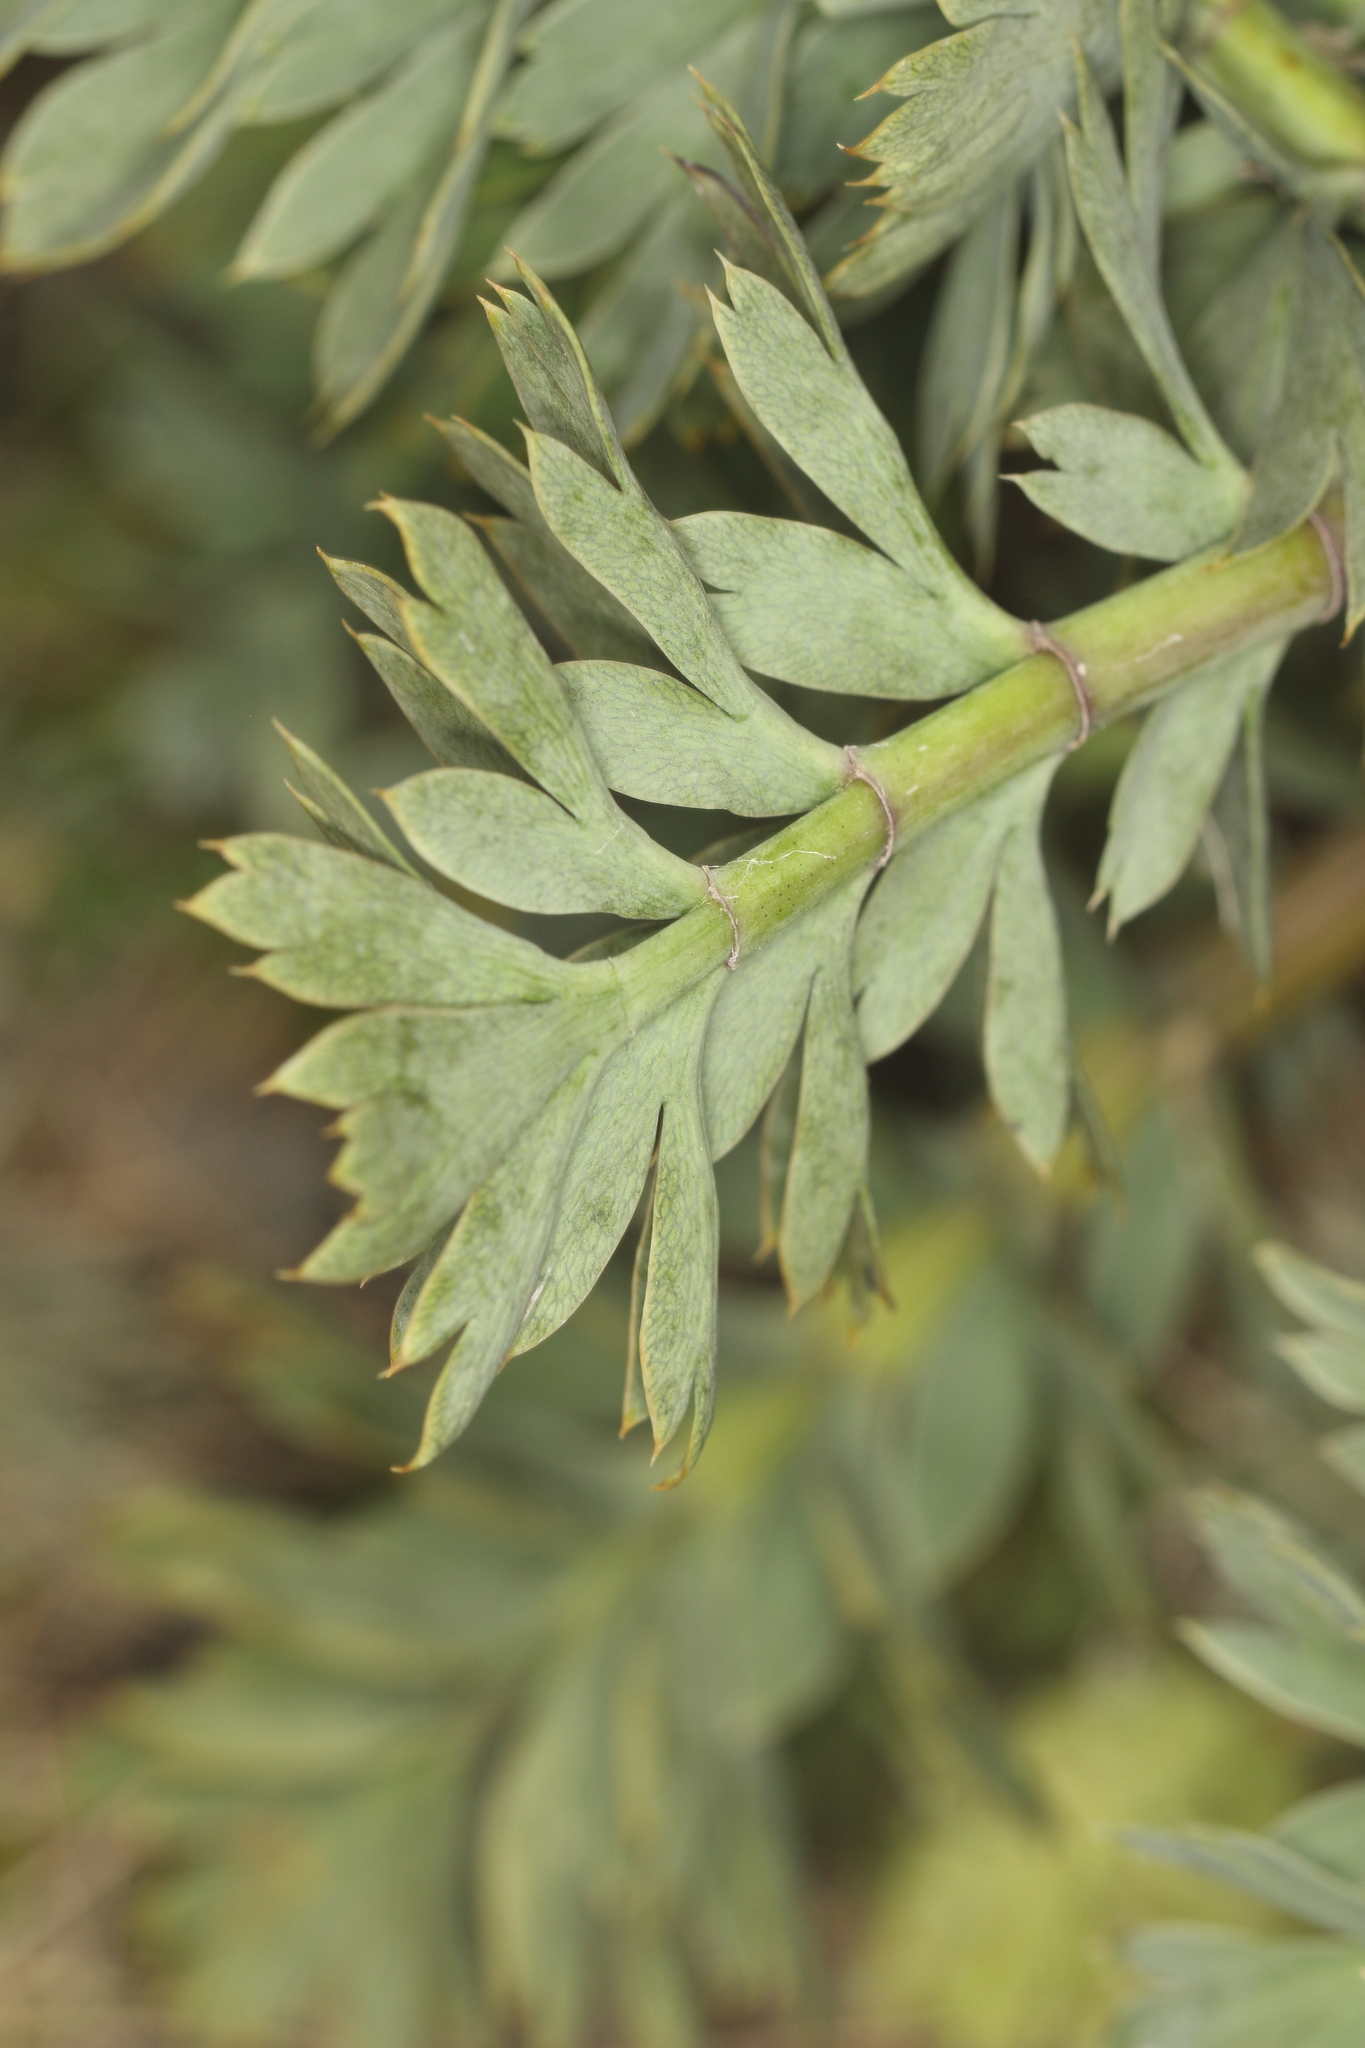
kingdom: Plantae
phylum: Tracheophyta
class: Magnoliopsida
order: Apiales
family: Apiaceae
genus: Anisotome
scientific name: Anisotome pilifera
